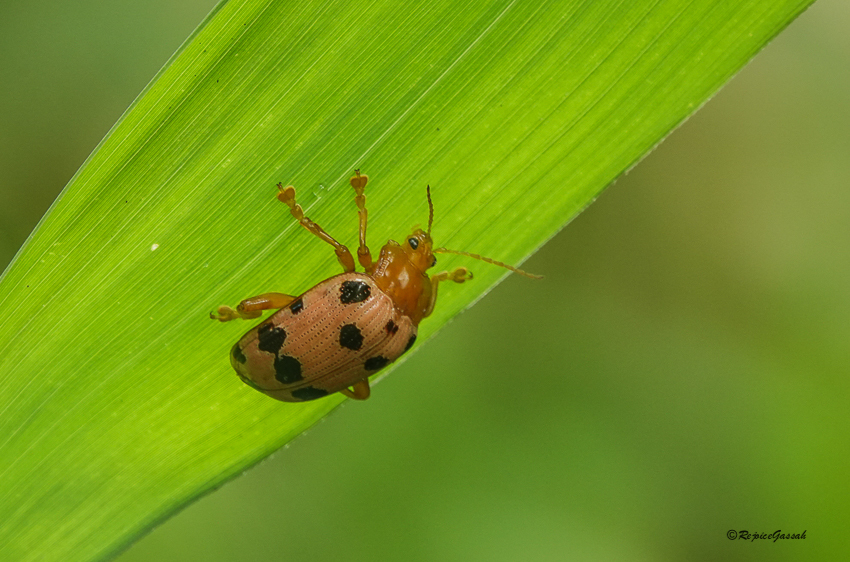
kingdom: Animalia
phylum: Arthropoda
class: Insecta
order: Coleoptera
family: Chrysomelidae
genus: Podontia
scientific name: Podontia
